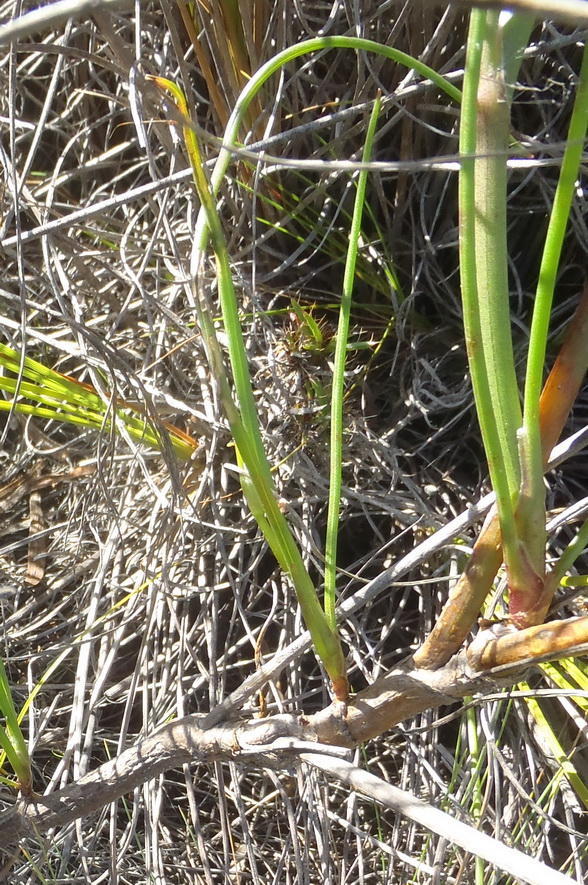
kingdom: Plantae
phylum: Tracheophyta
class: Magnoliopsida
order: Apiales
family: Apiaceae
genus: Centella
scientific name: Centella macrocarpa
